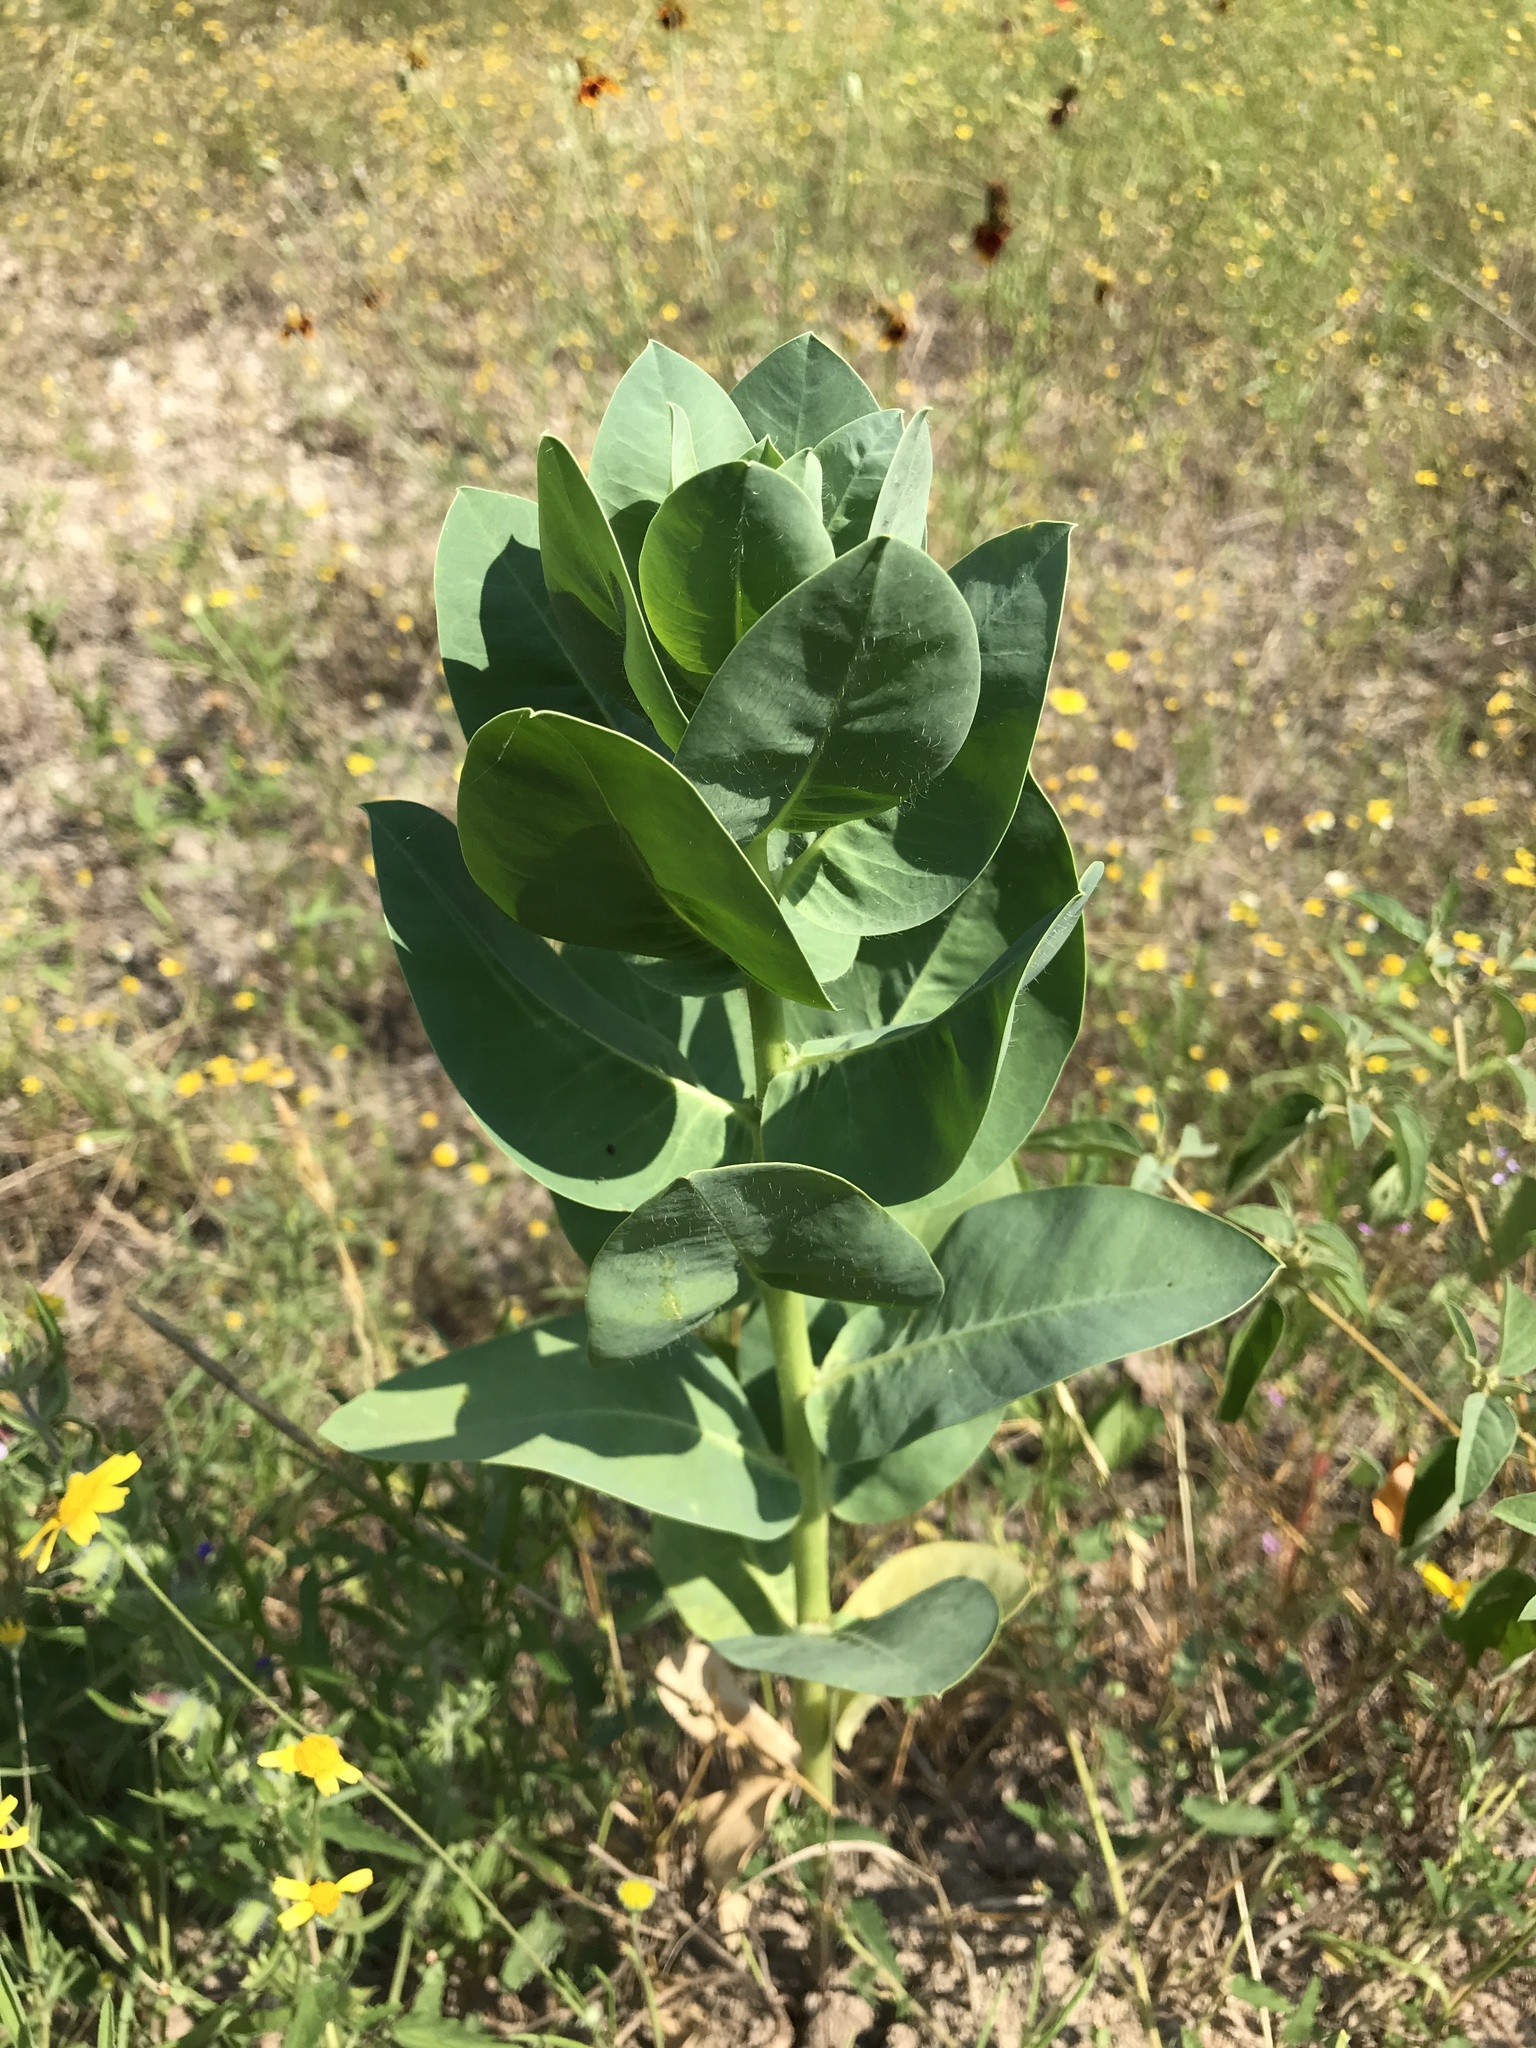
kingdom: Plantae
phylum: Tracheophyta
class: Magnoliopsida
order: Malpighiales
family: Euphorbiaceae
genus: Euphorbia
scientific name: Euphorbia marginata
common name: Ghostweed
